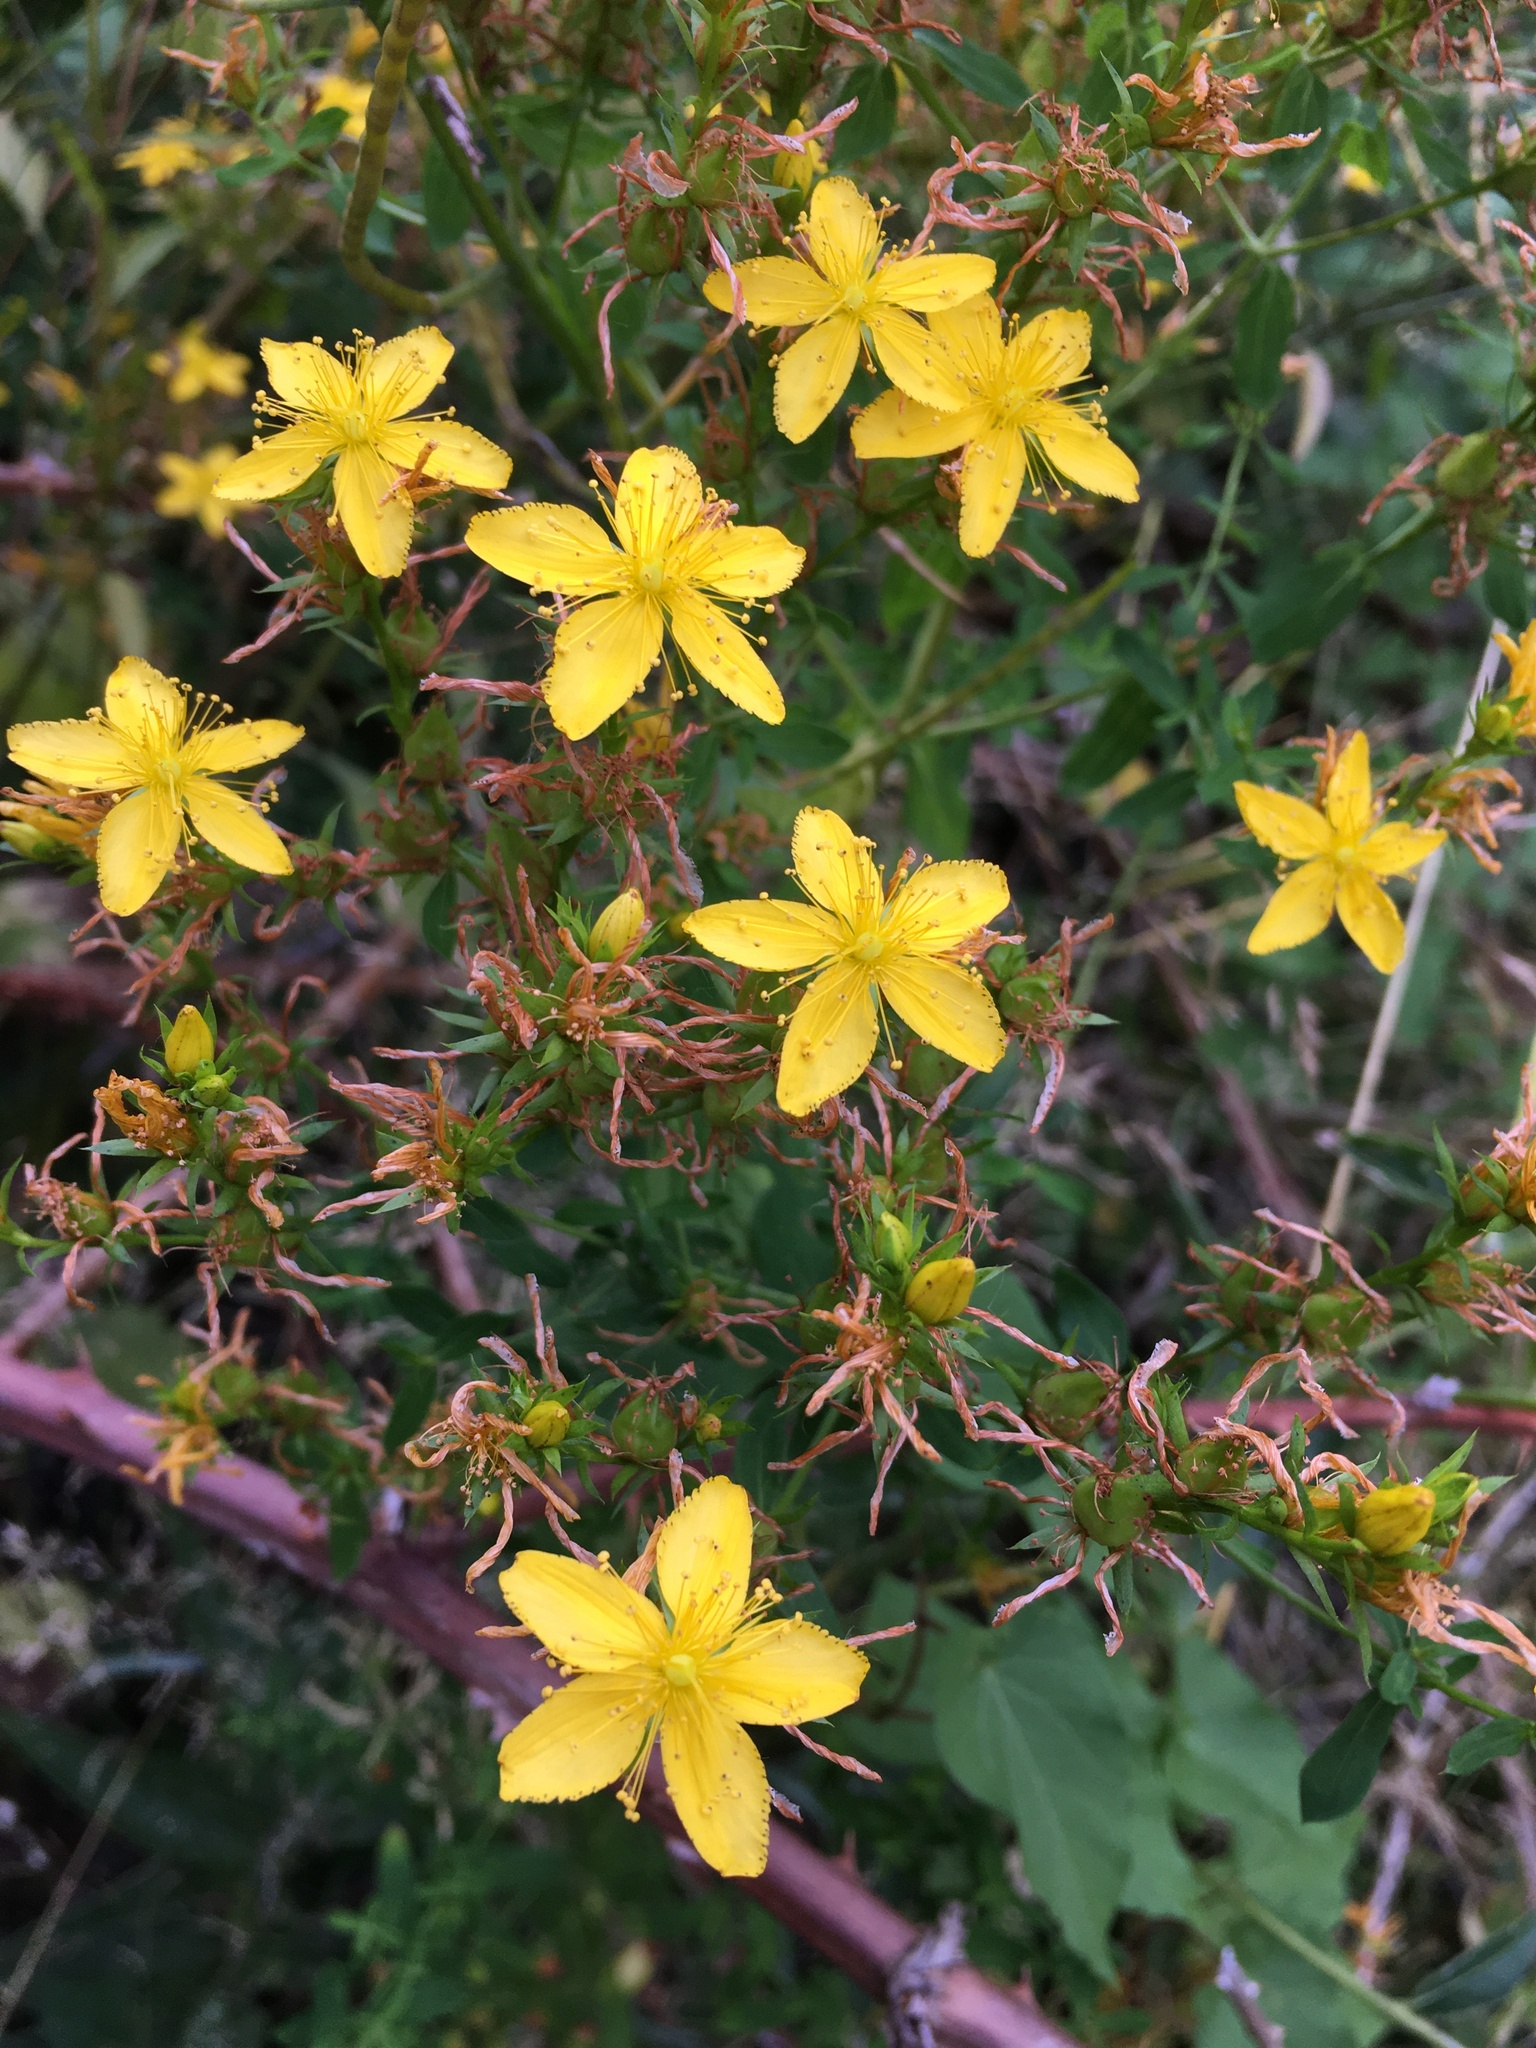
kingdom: Plantae
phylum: Tracheophyta
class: Magnoliopsida
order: Malpighiales
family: Hypericaceae
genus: Hypericum
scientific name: Hypericum perforatum
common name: Common st. johnswort
